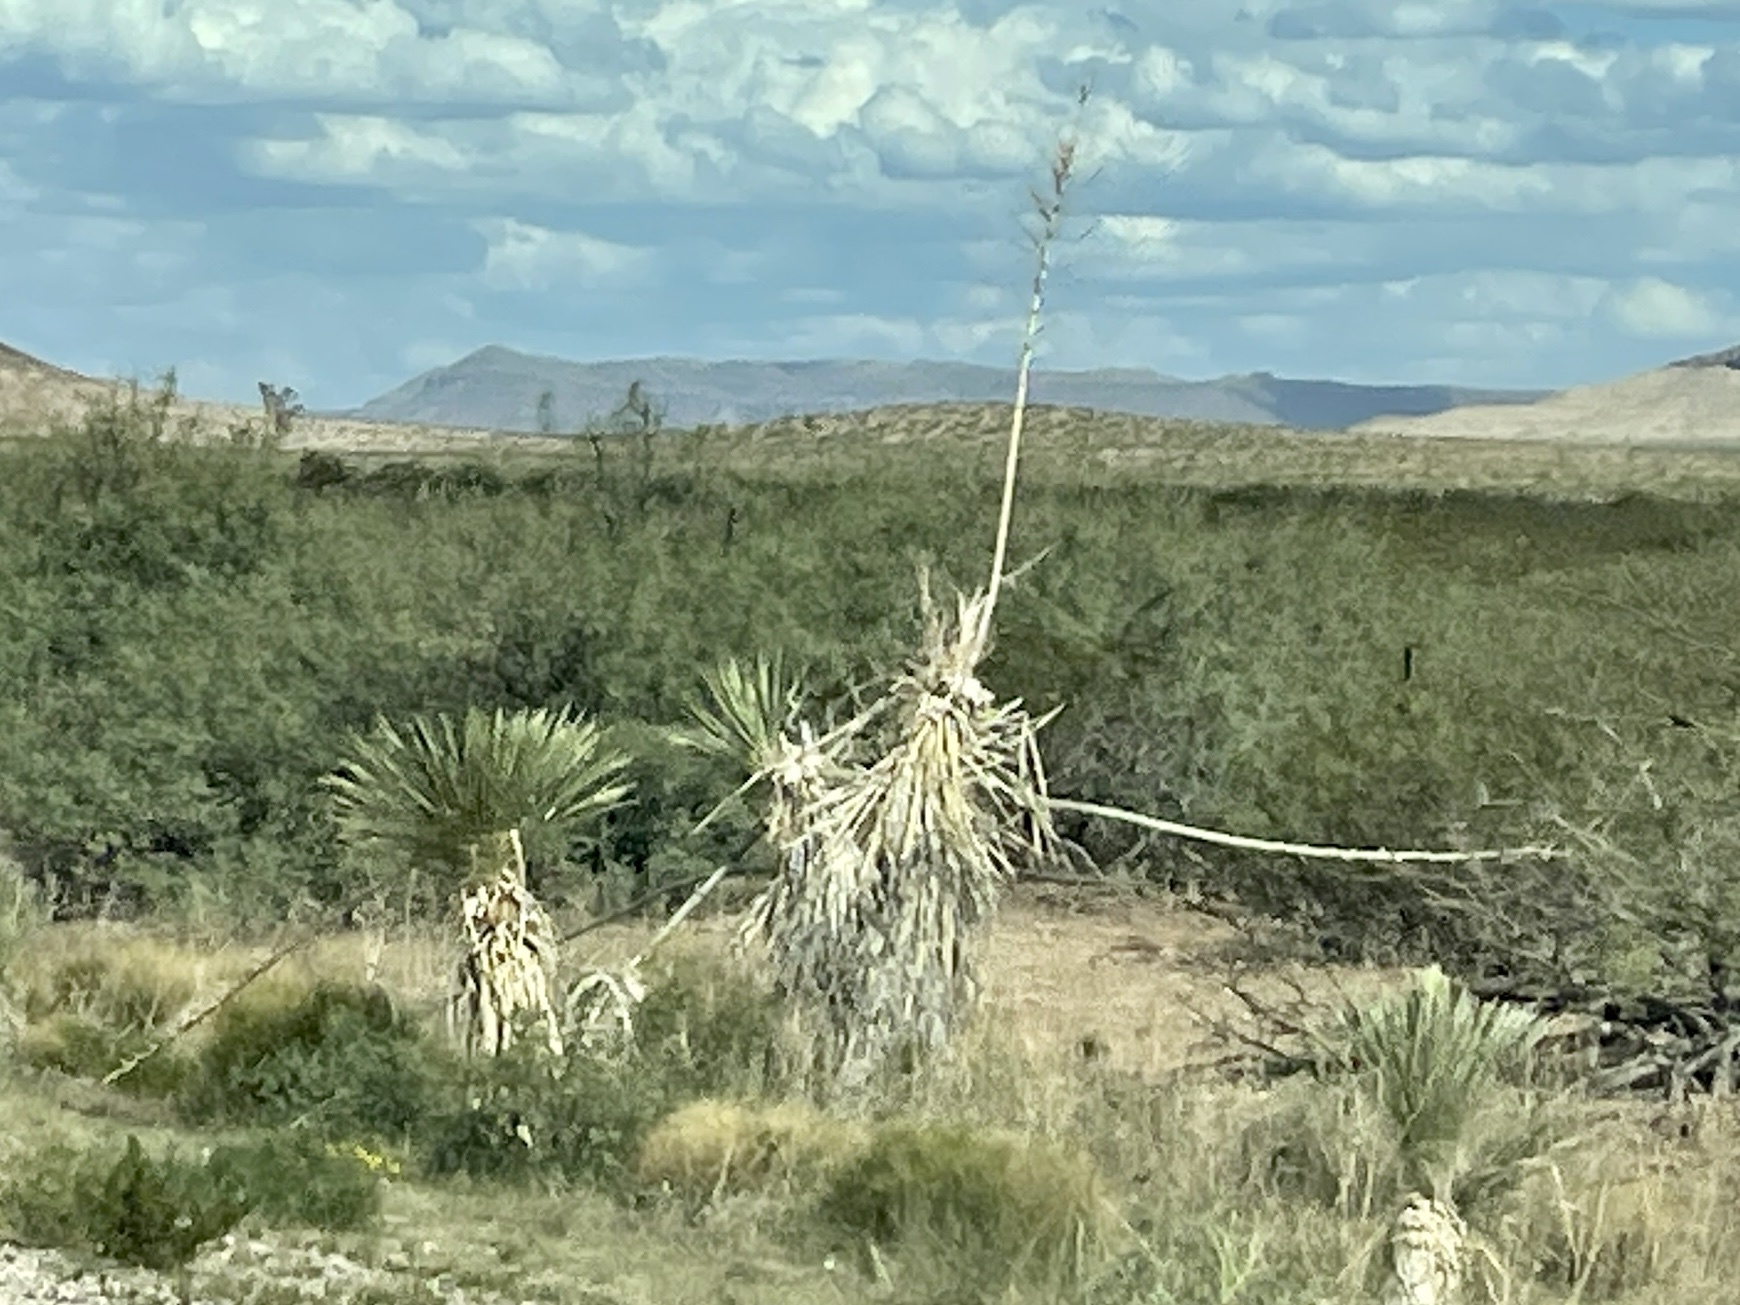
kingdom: Plantae
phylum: Tracheophyta
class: Liliopsida
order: Asparagales
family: Asparagaceae
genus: Yucca
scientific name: Yucca elata
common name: Palmella
